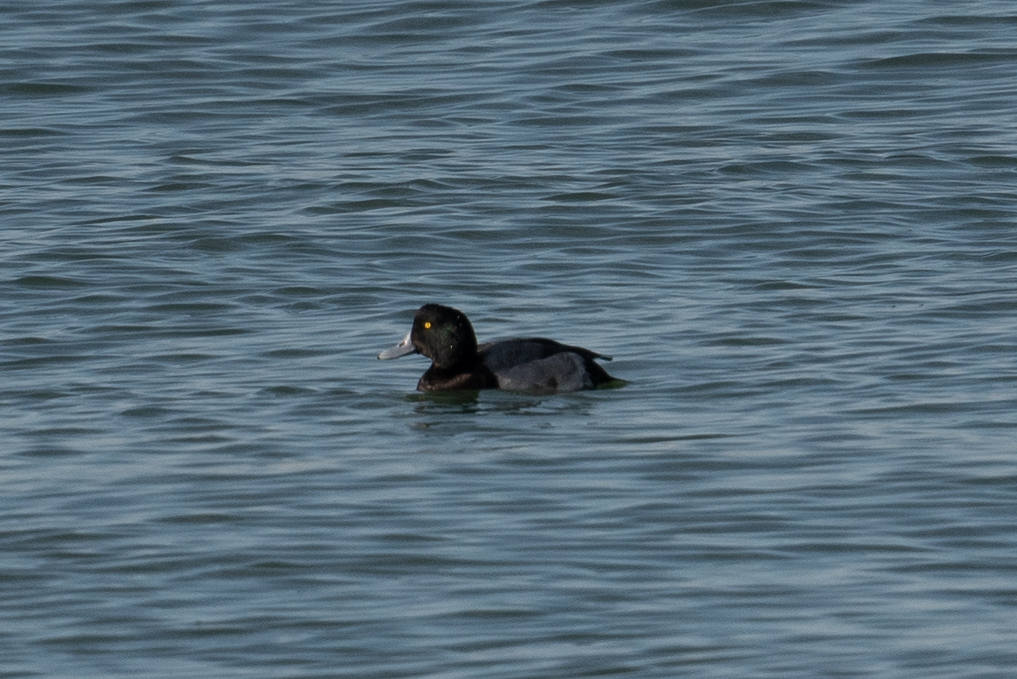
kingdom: Animalia
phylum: Chordata
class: Aves
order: Anseriformes
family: Anatidae
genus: Aythya
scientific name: Aythya marila
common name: Greater scaup
